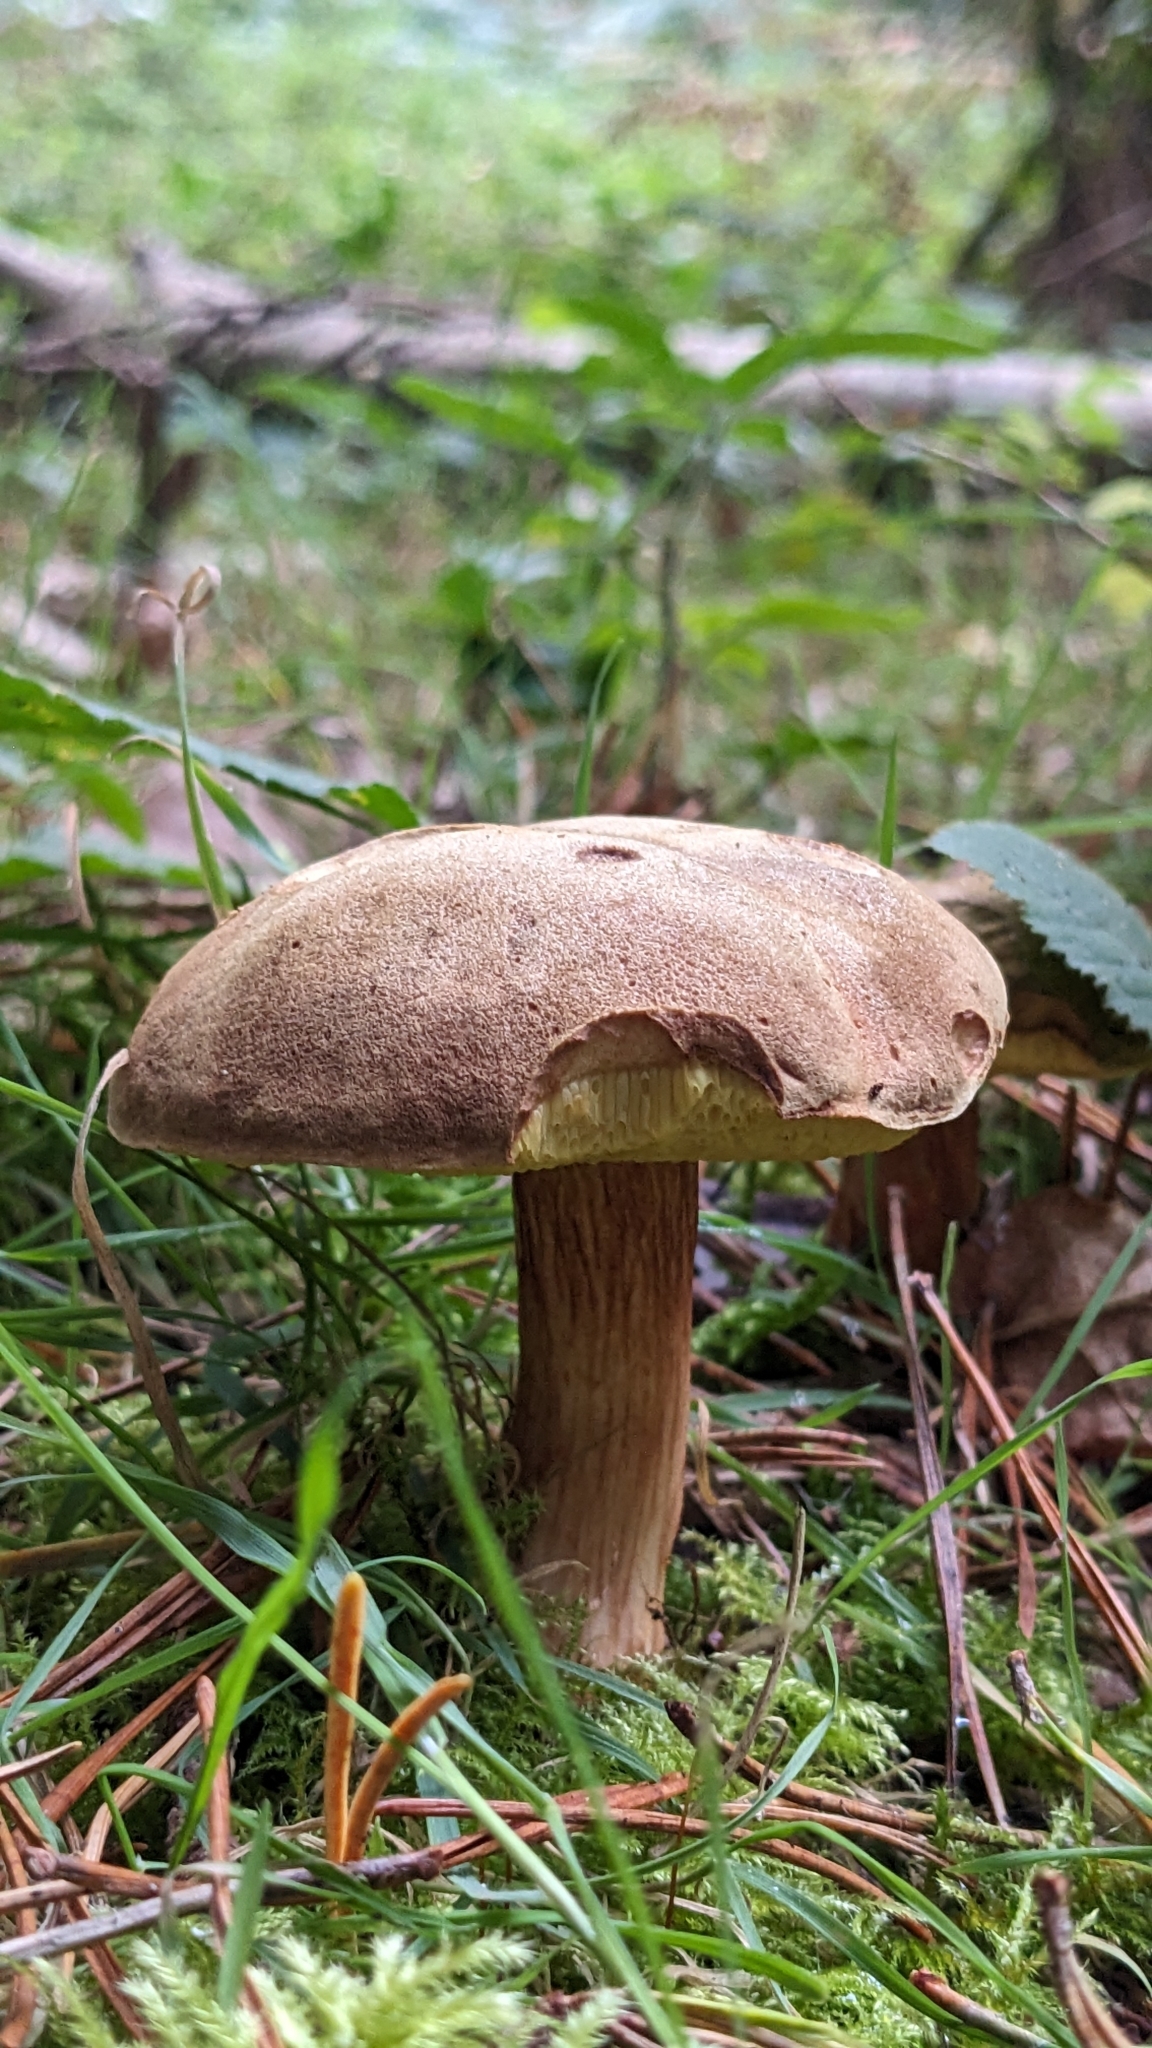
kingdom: Fungi
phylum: Basidiomycota
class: Agaricomycetes
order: Boletales
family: Boletaceae
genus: Xerocomus
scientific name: Xerocomus ferrugineus
